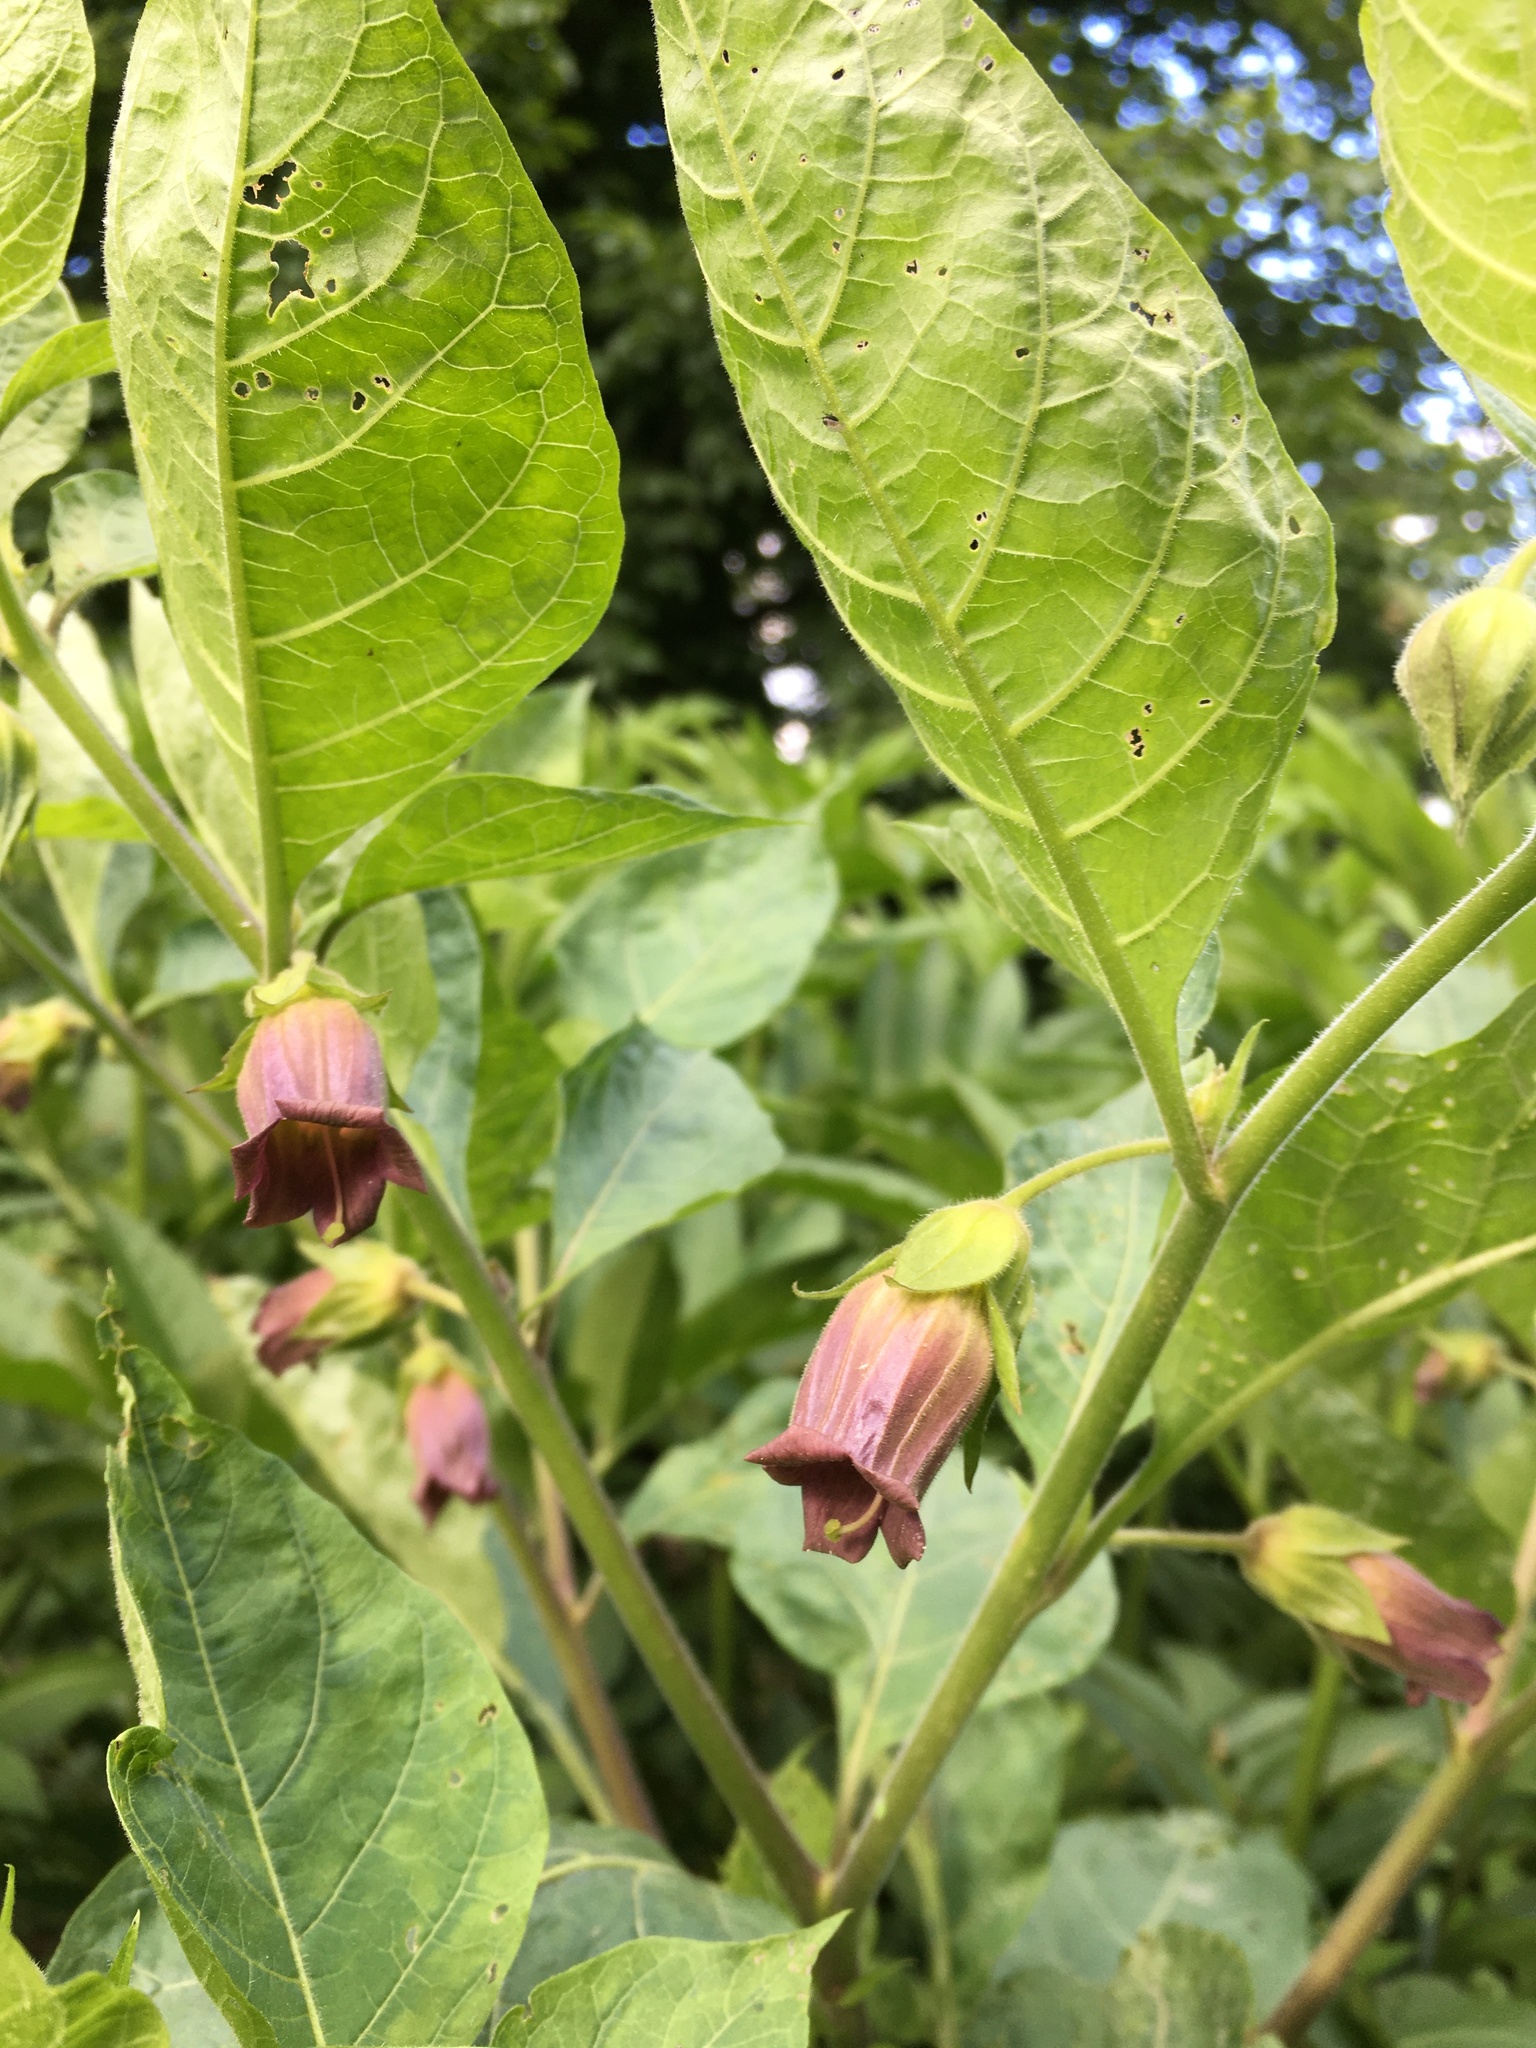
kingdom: Plantae
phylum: Tracheophyta
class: Magnoliopsida
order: Solanales
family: Solanaceae
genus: Atropa
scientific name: Atropa belladonna
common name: Deadly nightshade
